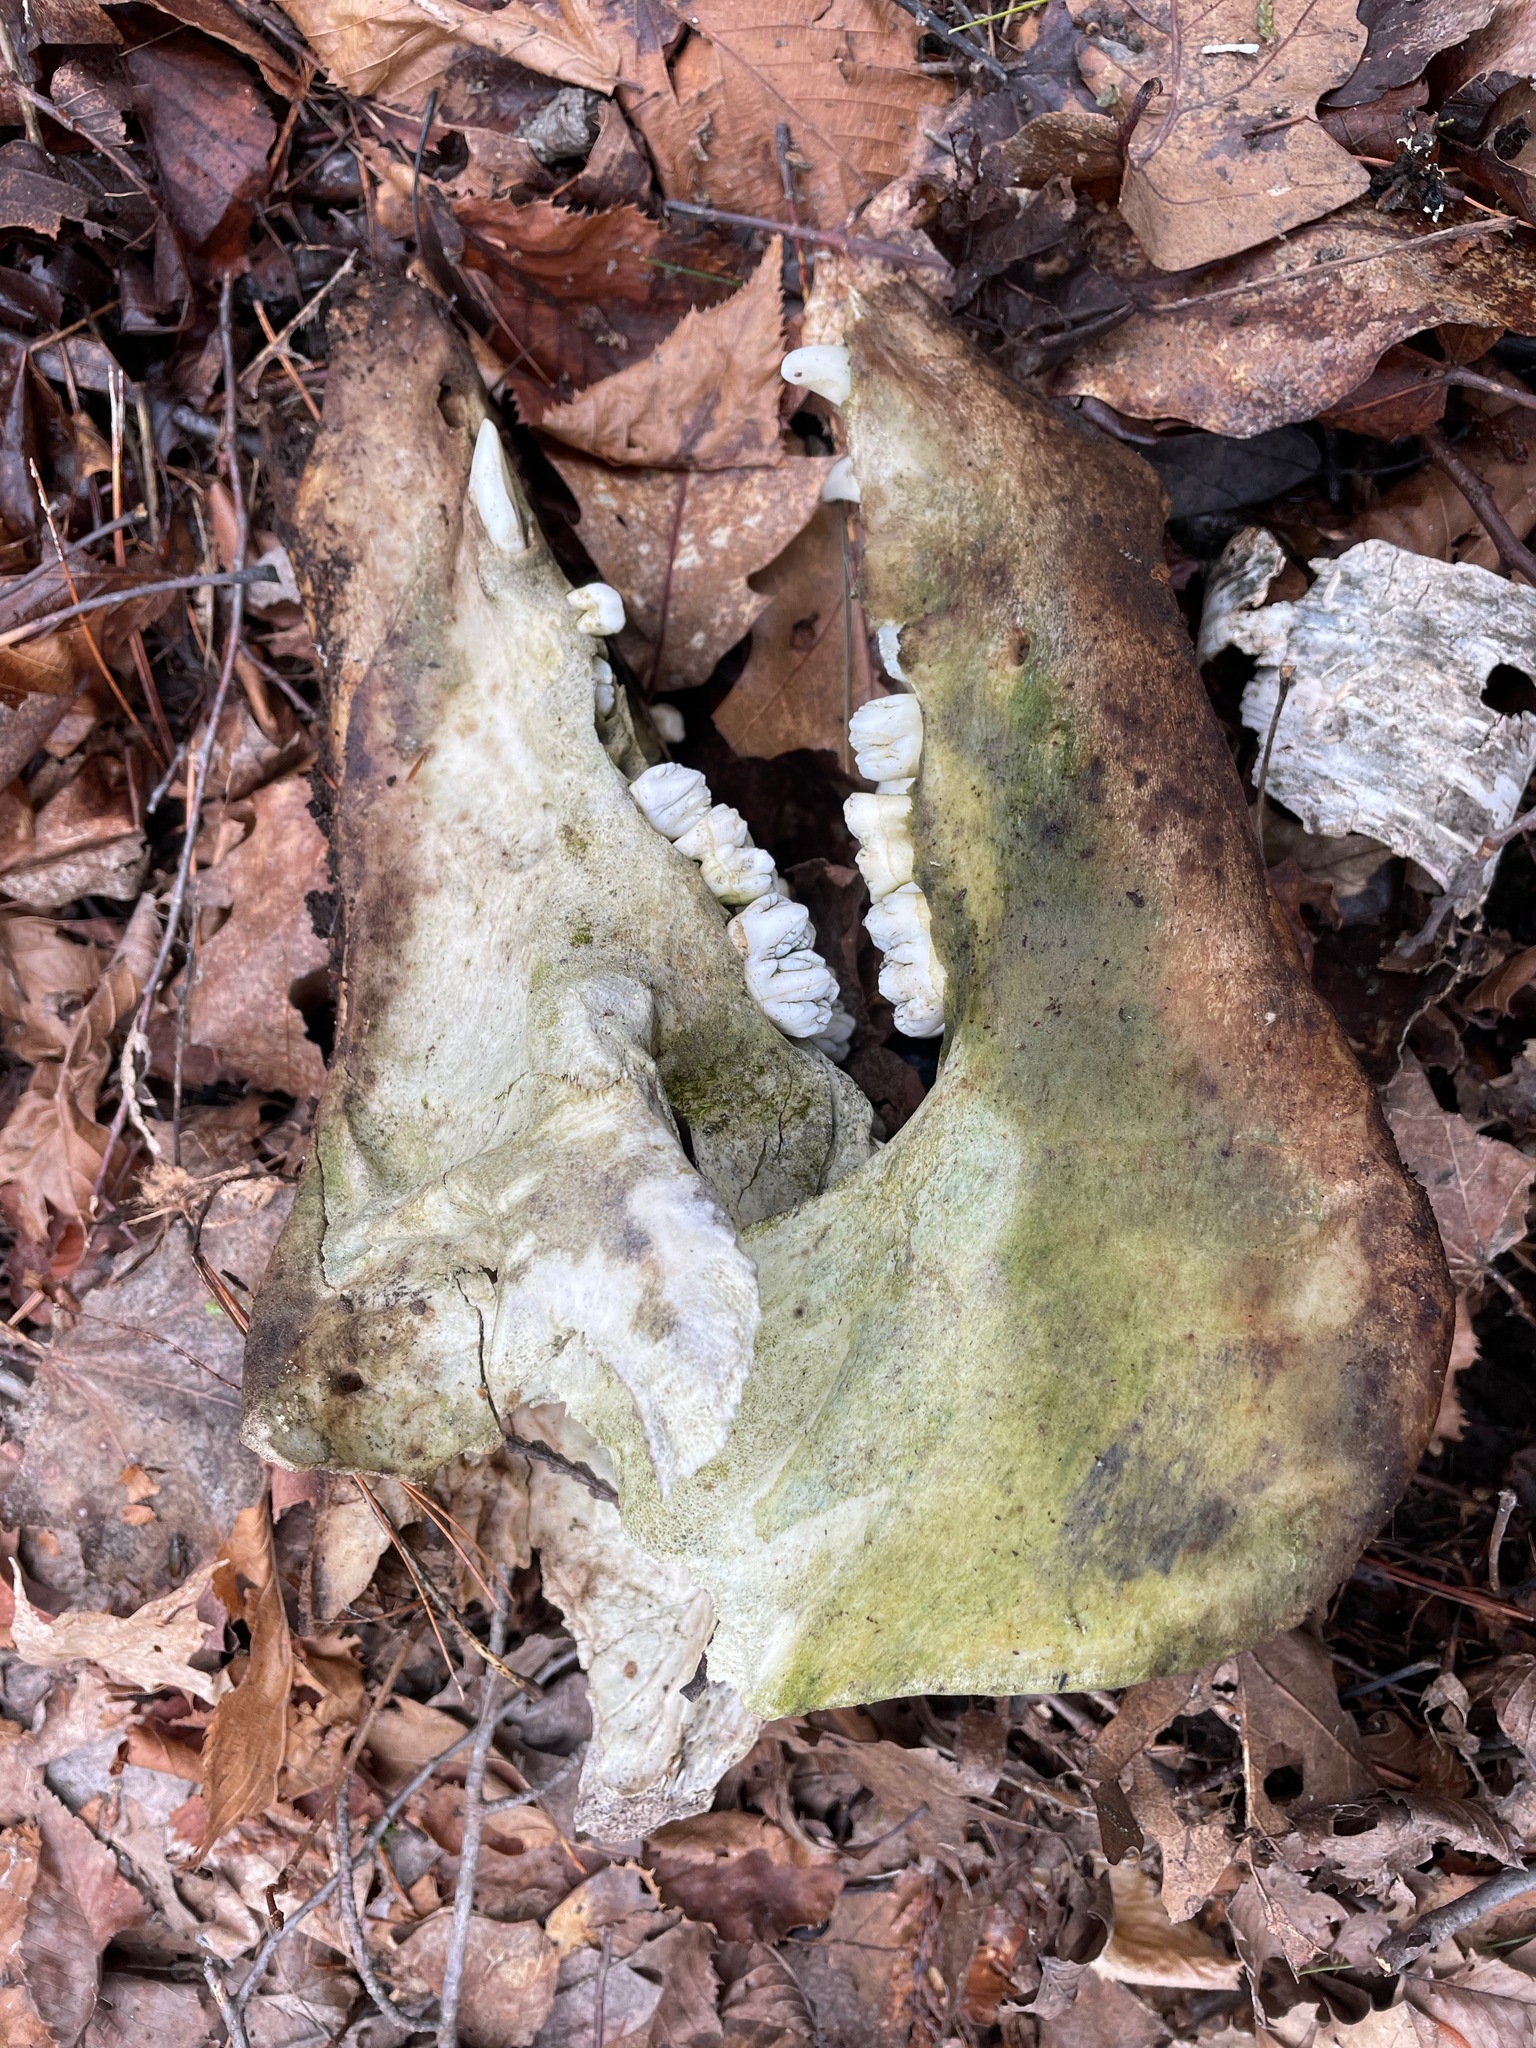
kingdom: Animalia
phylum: Chordata
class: Mammalia
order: Artiodactyla
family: Suidae
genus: Sus
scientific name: Sus scrofa
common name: Wild boar
